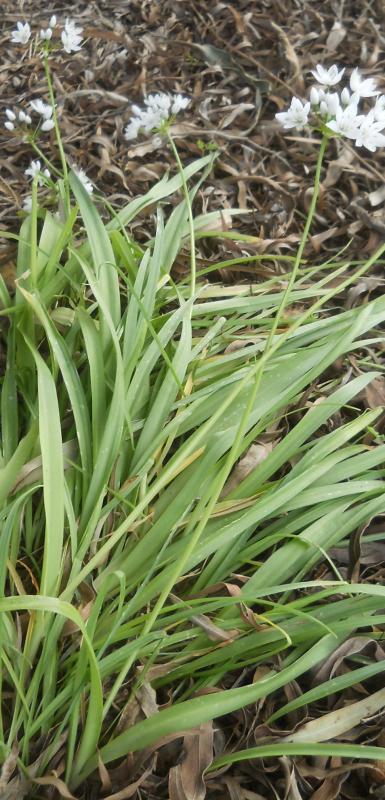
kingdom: Plantae
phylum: Tracheophyta
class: Liliopsida
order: Asparagales
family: Amaryllidaceae
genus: Allium
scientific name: Allium neapolitanum
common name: Neapolitan garlic
